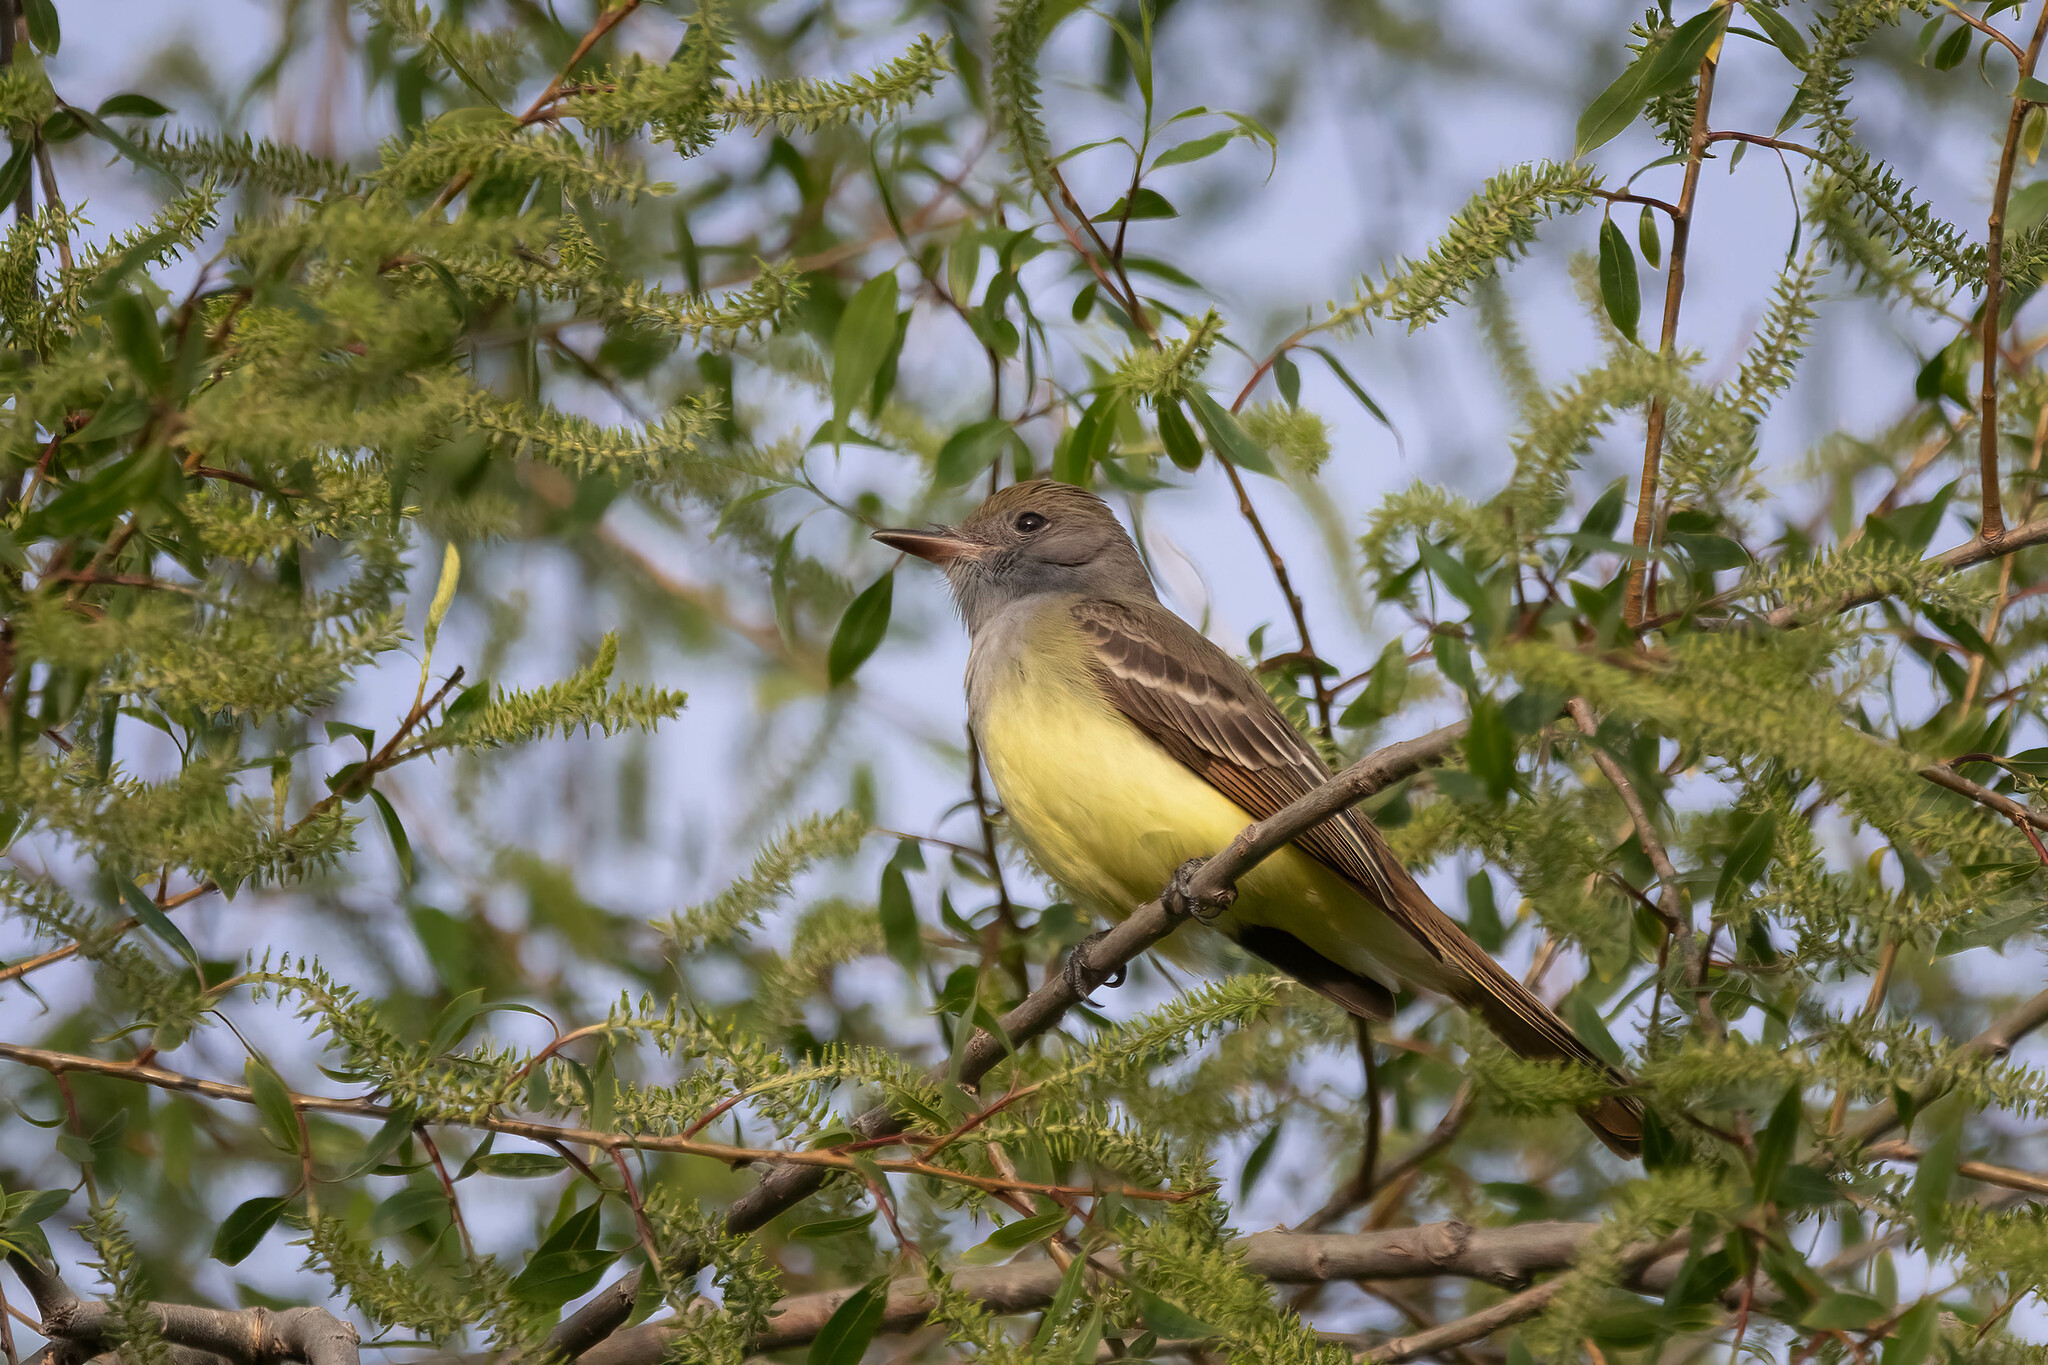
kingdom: Animalia
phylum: Chordata
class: Aves
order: Passeriformes
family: Tyrannidae
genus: Myiarchus
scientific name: Myiarchus crinitus
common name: Great crested flycatcher
